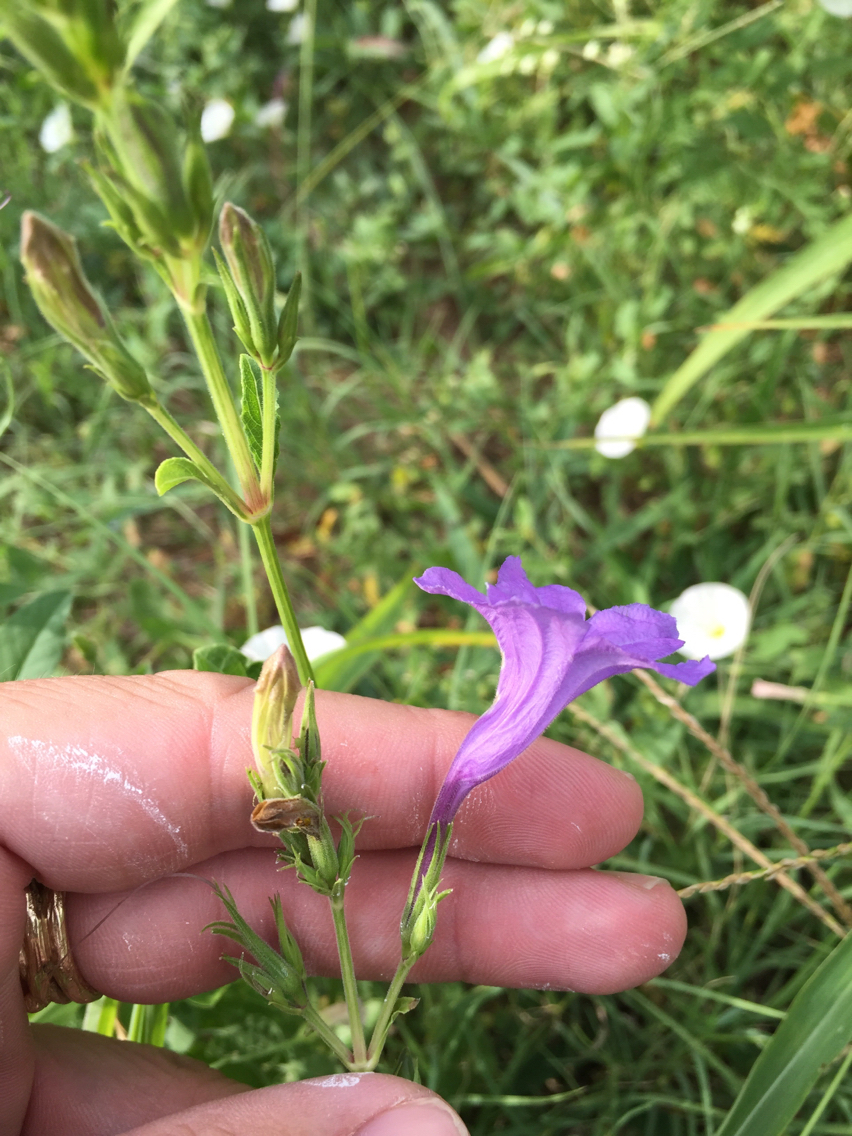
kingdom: Plantae
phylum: Tracheophyta
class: Magnoliopsida
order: Lamiales
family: Acanthaceae
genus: Ruellia
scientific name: Ruellia ciliatiflora
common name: Hairyflower wild petunia
